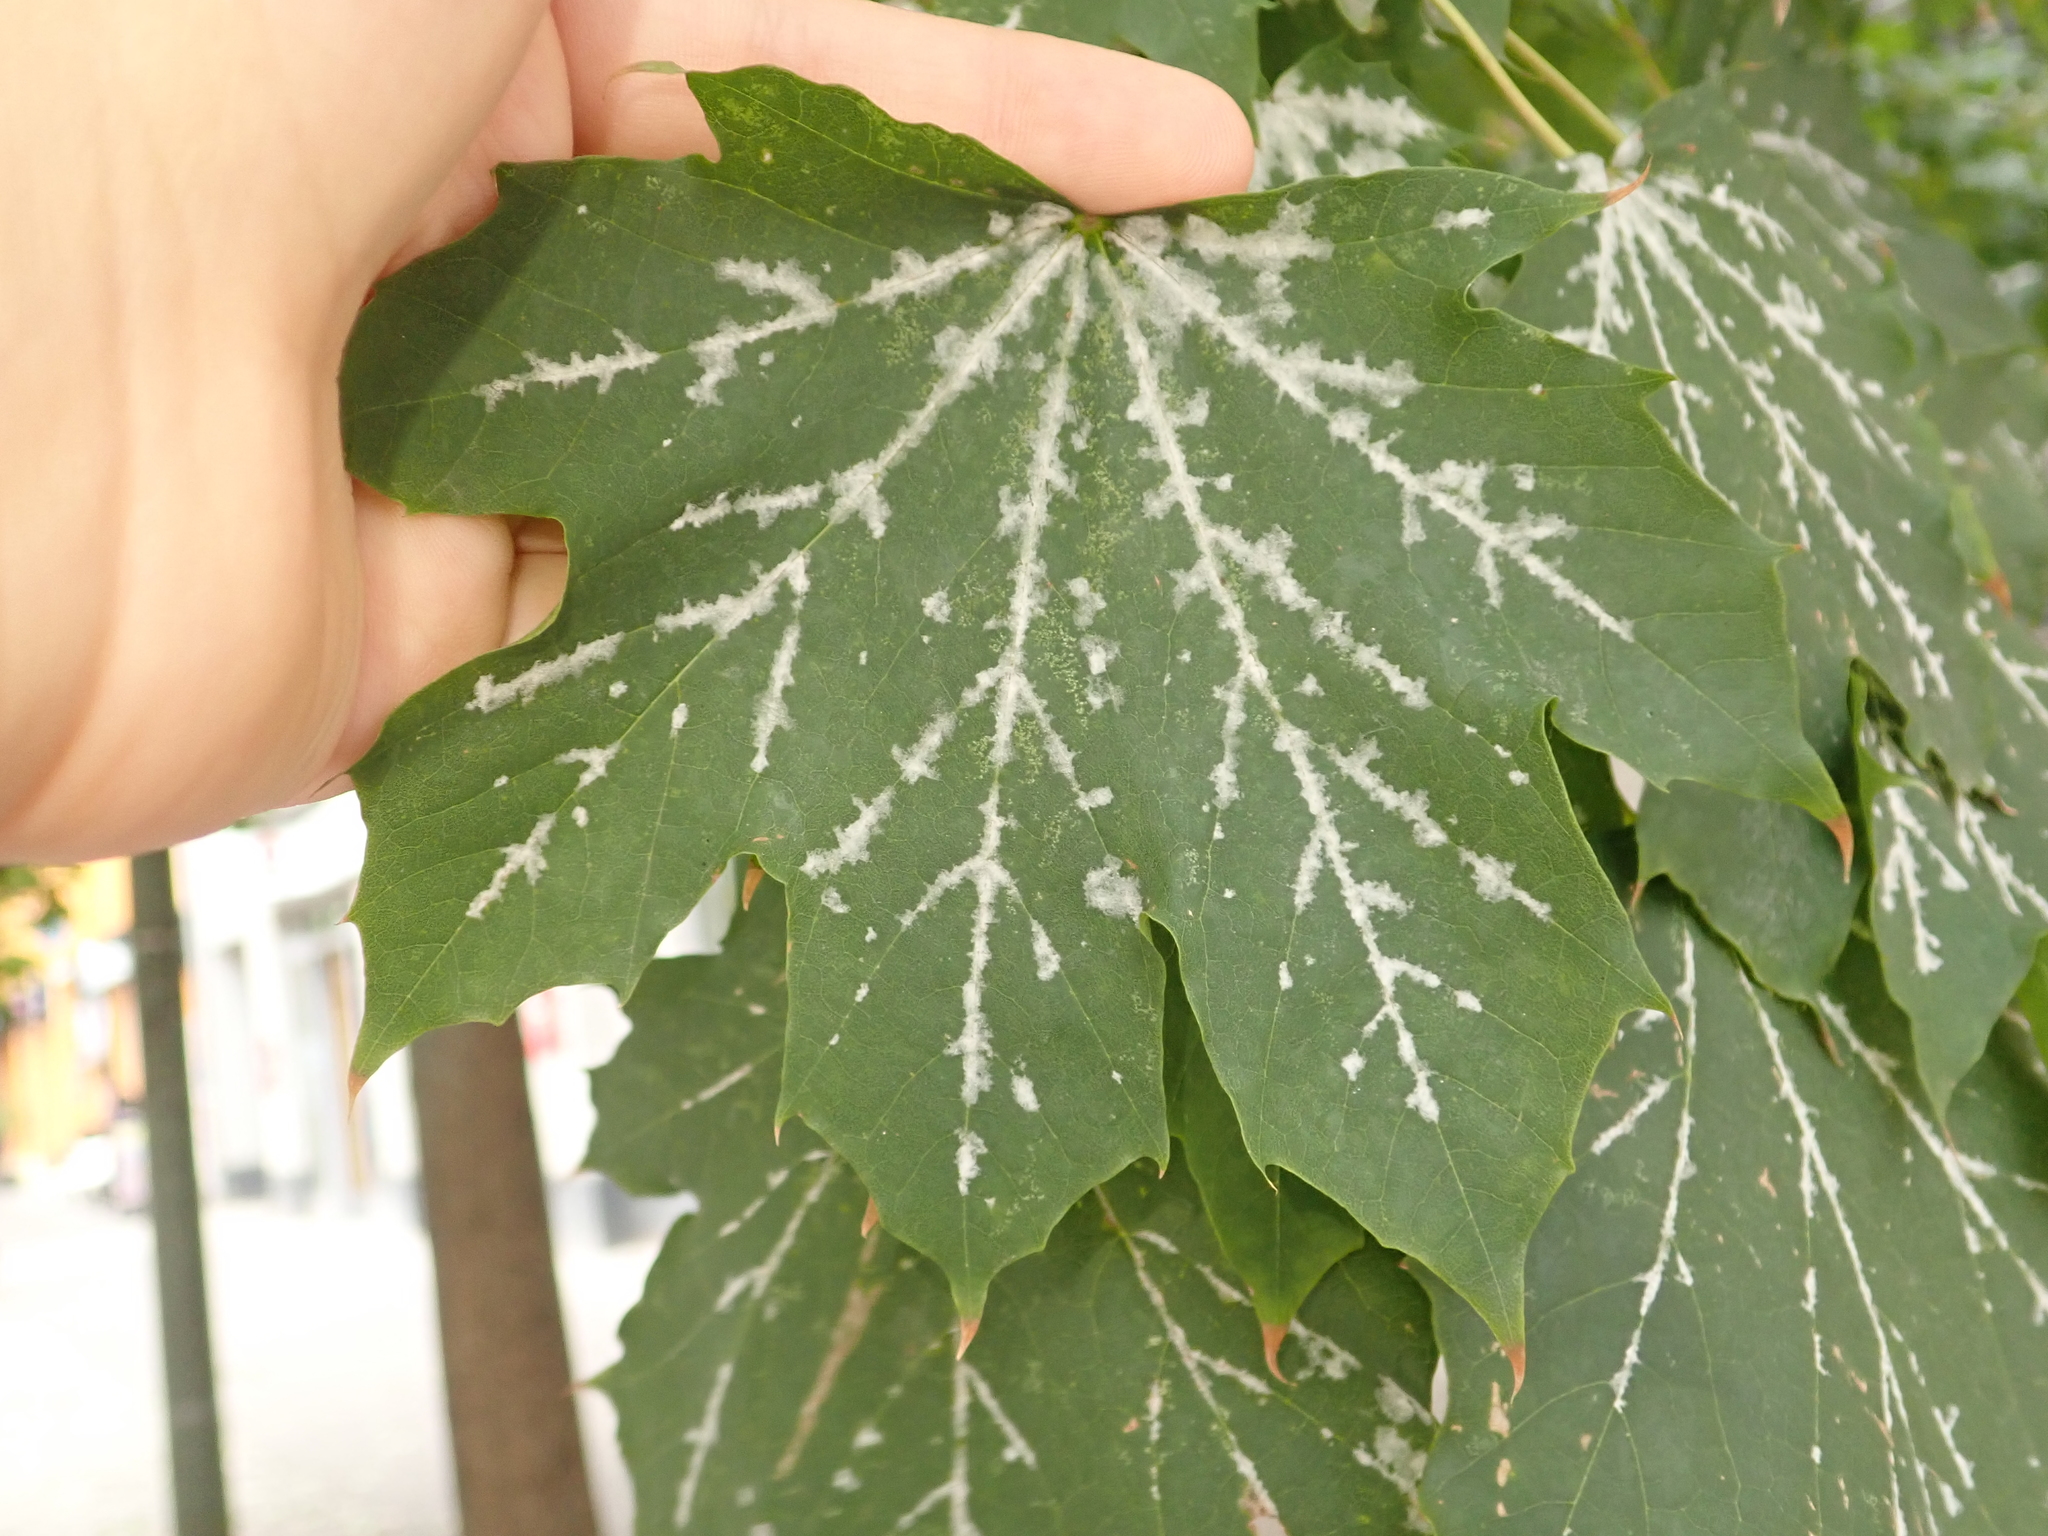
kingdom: Fungi
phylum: Ascomycota
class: Leotiomycetes
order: Helotiales
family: Erysiphaceae
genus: Sawadaea
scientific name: Sawadaea tulasnei
